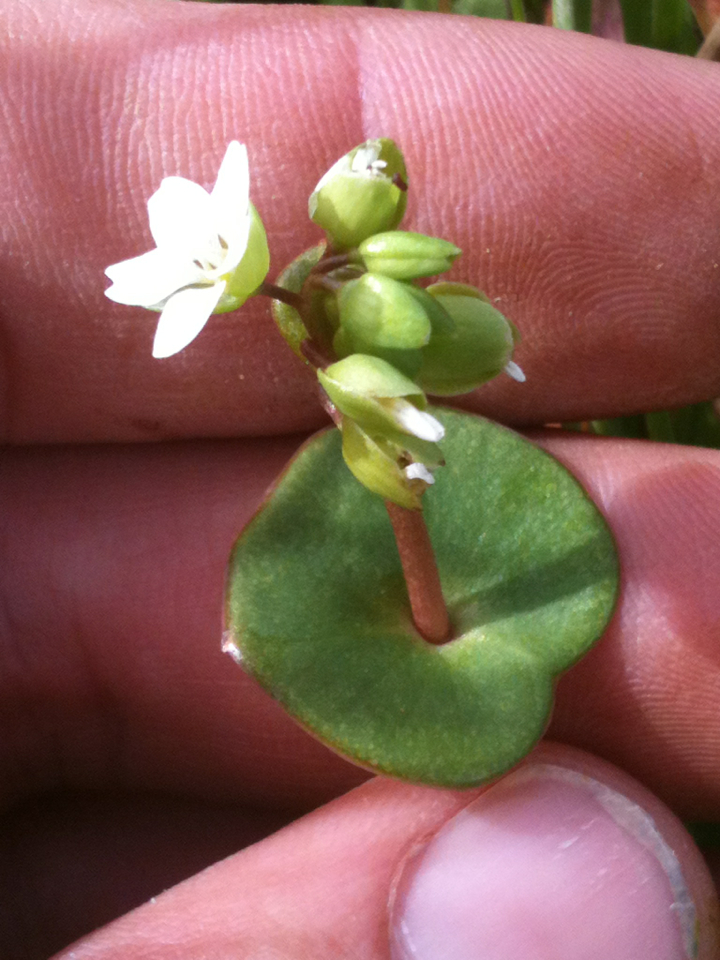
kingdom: Plantae
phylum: Tracheophyta
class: Magnoliopsida
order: Caryophyllales
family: Montiaceae
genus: Claytonia
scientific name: Claytonia perfoliata
